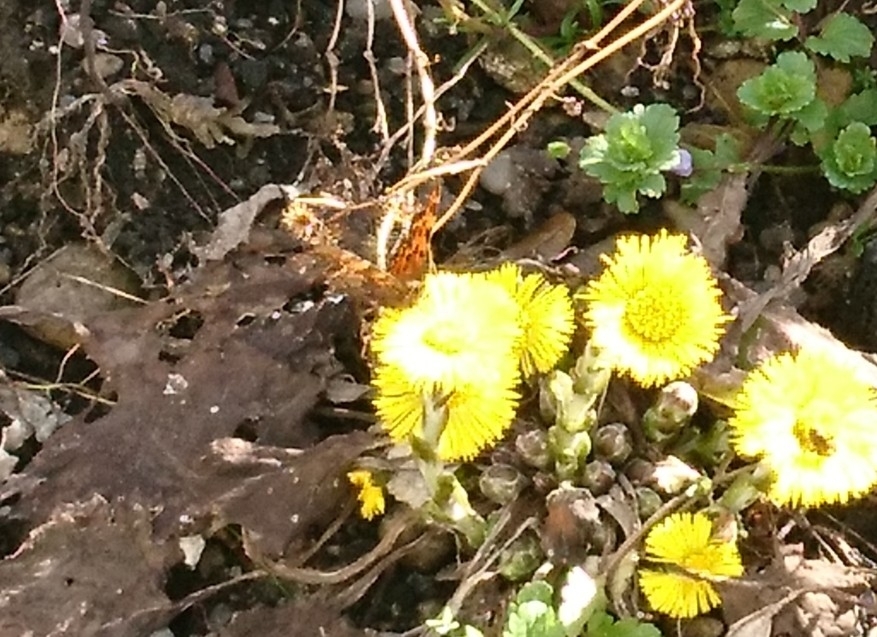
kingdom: Animalia
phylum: Arthropoda
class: Insecta
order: Lepidoptera
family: Nymphalidae
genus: Polygonia
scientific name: Polygonia c-album
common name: Comma
